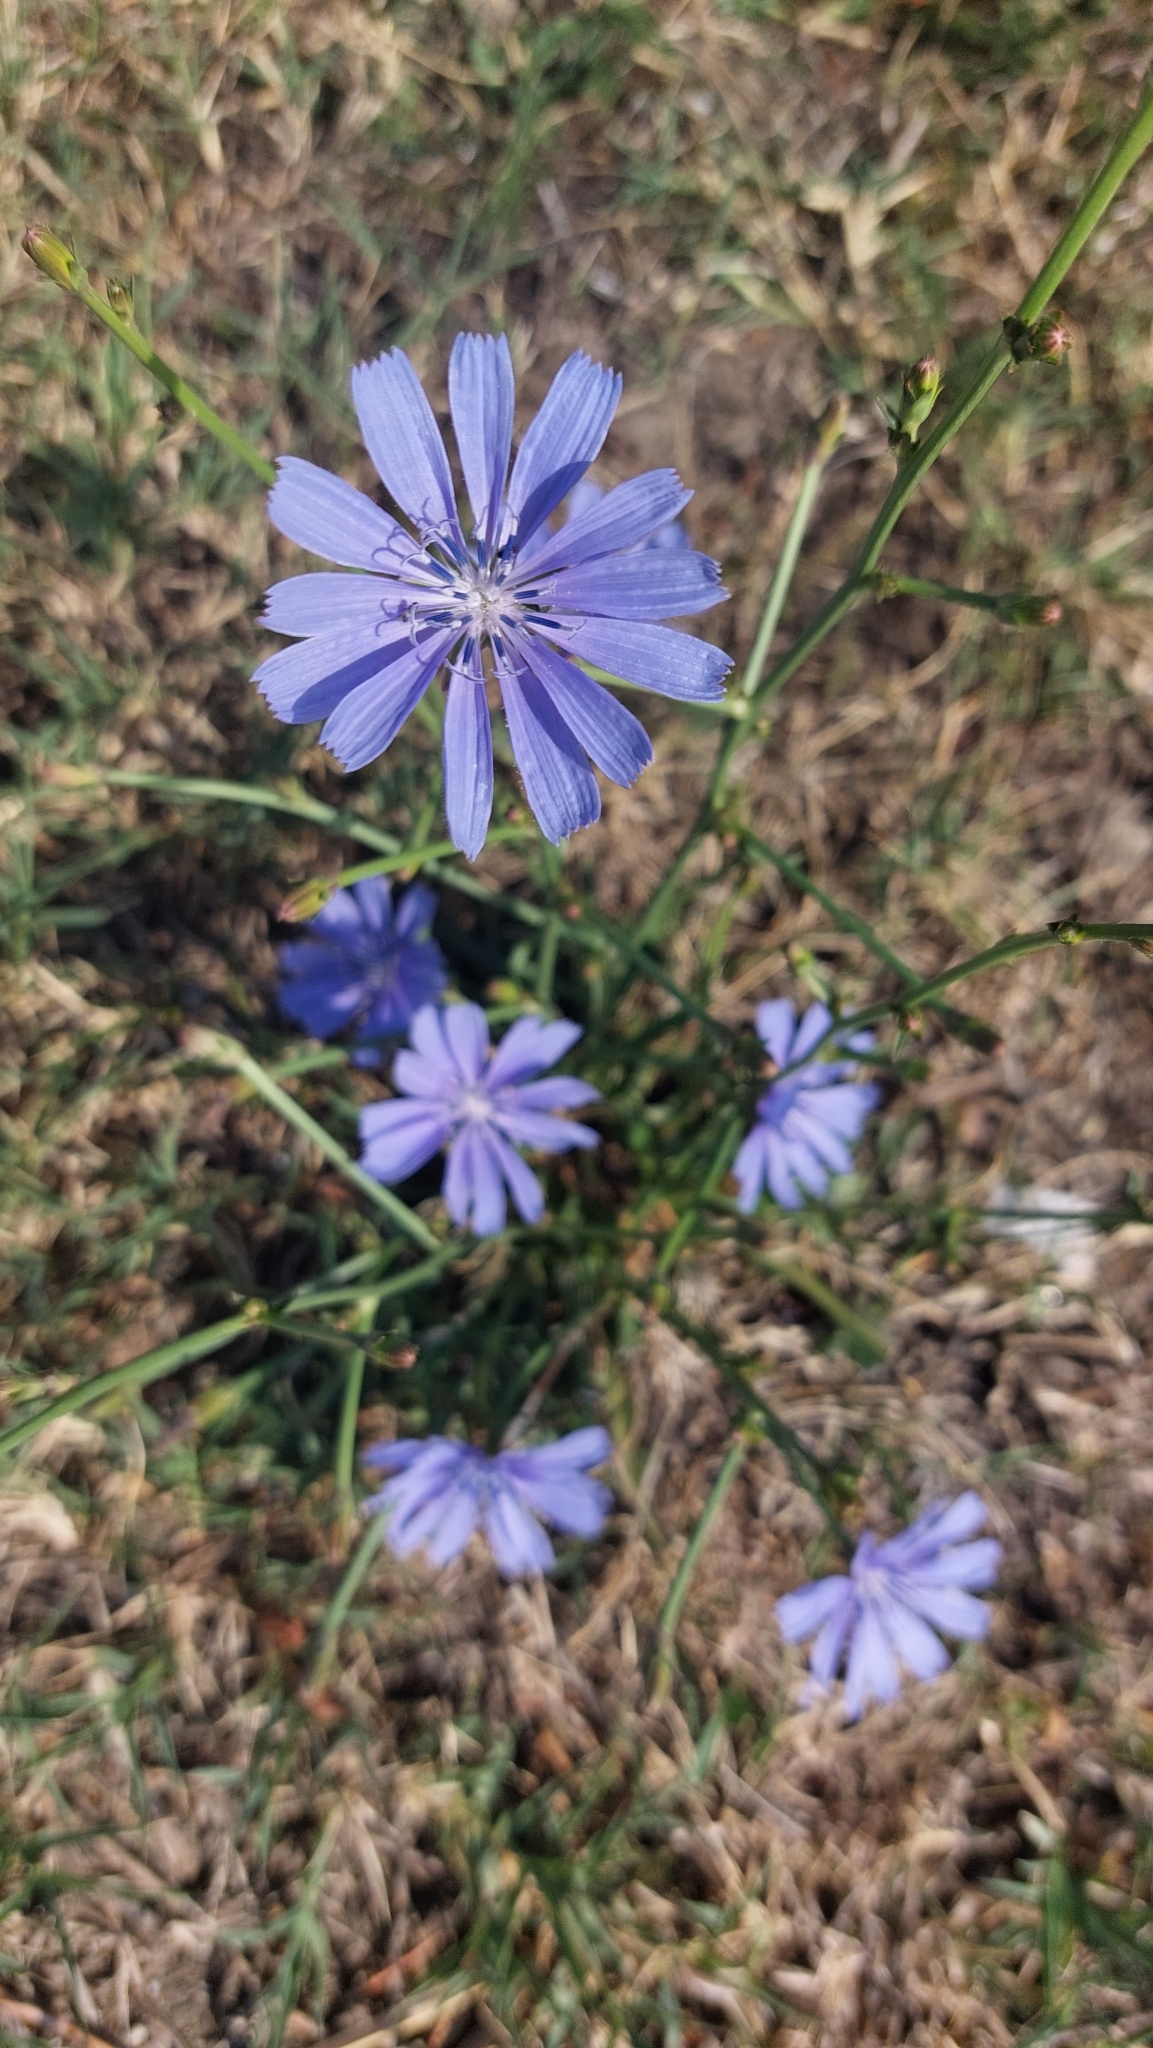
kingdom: Plantae
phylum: Tracheophyta
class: Magnoliopsida
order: Asterales
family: Asteraceae
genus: Cichorium
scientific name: Cichorium intybus
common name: Chicory
